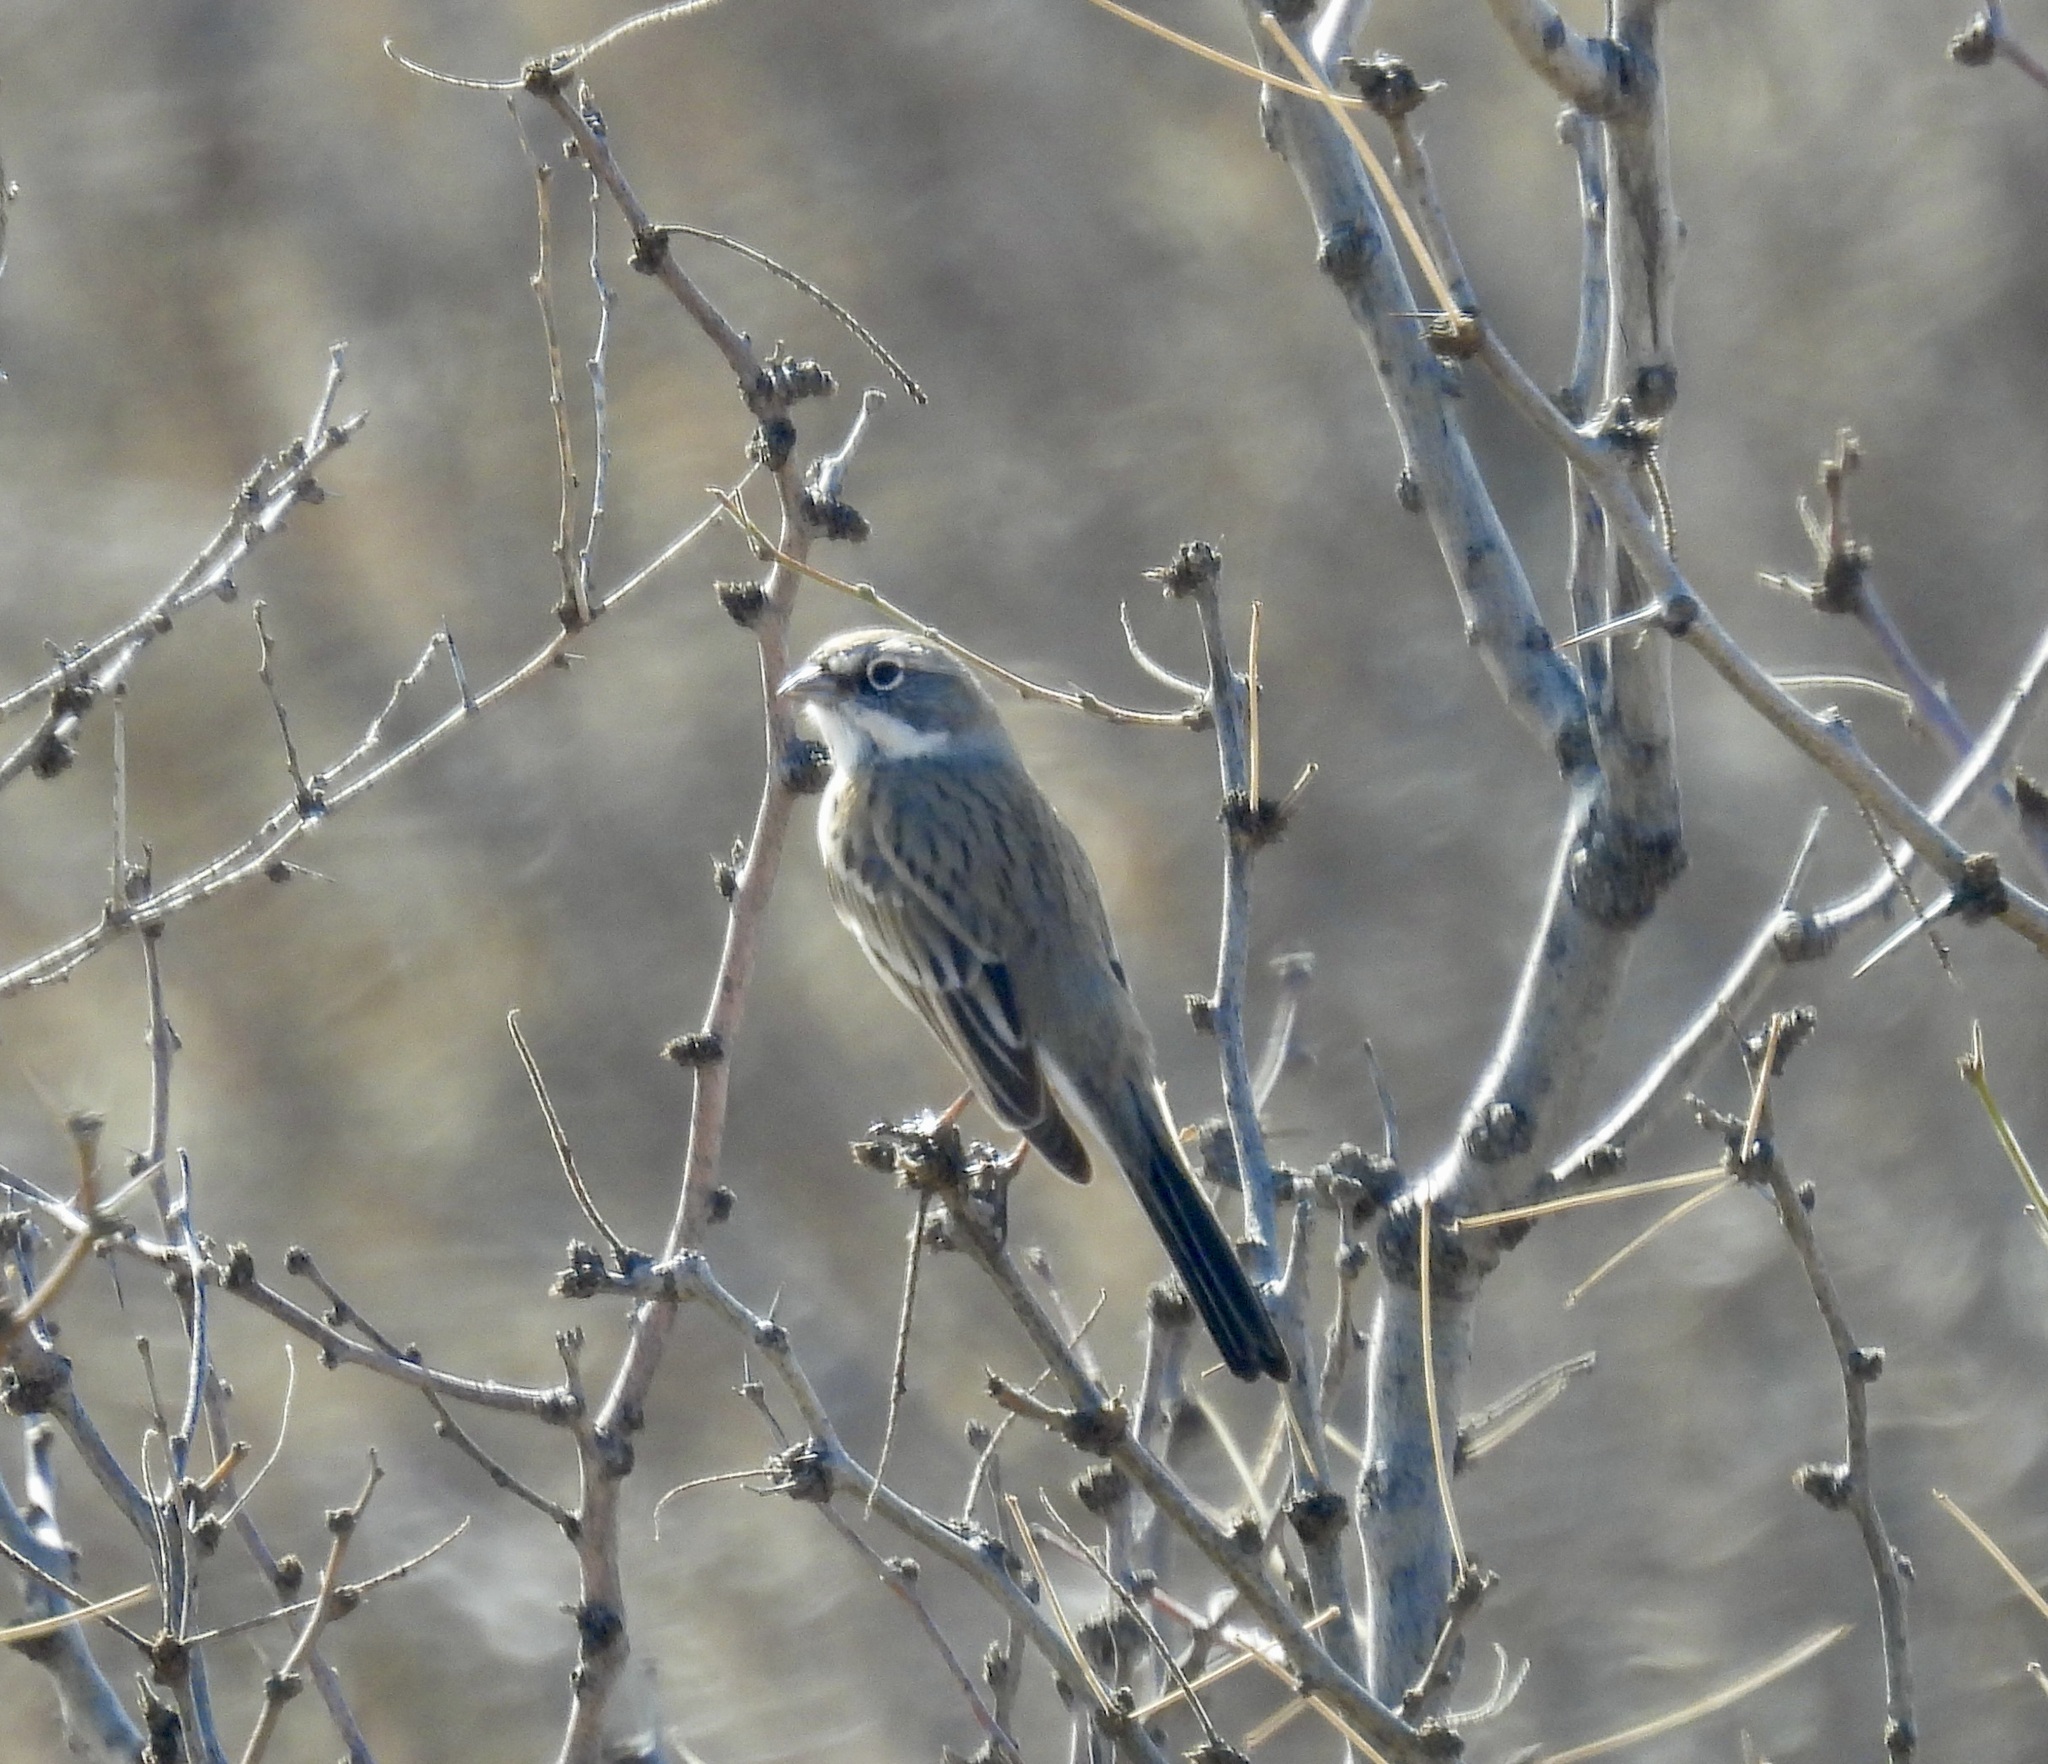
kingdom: Animalia
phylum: Chordata
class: Aves
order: Passeriformes
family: Passerellidae
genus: Artemisiospiza
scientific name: Artemisiospiza nevadensis
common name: Sagebrush sparrow
